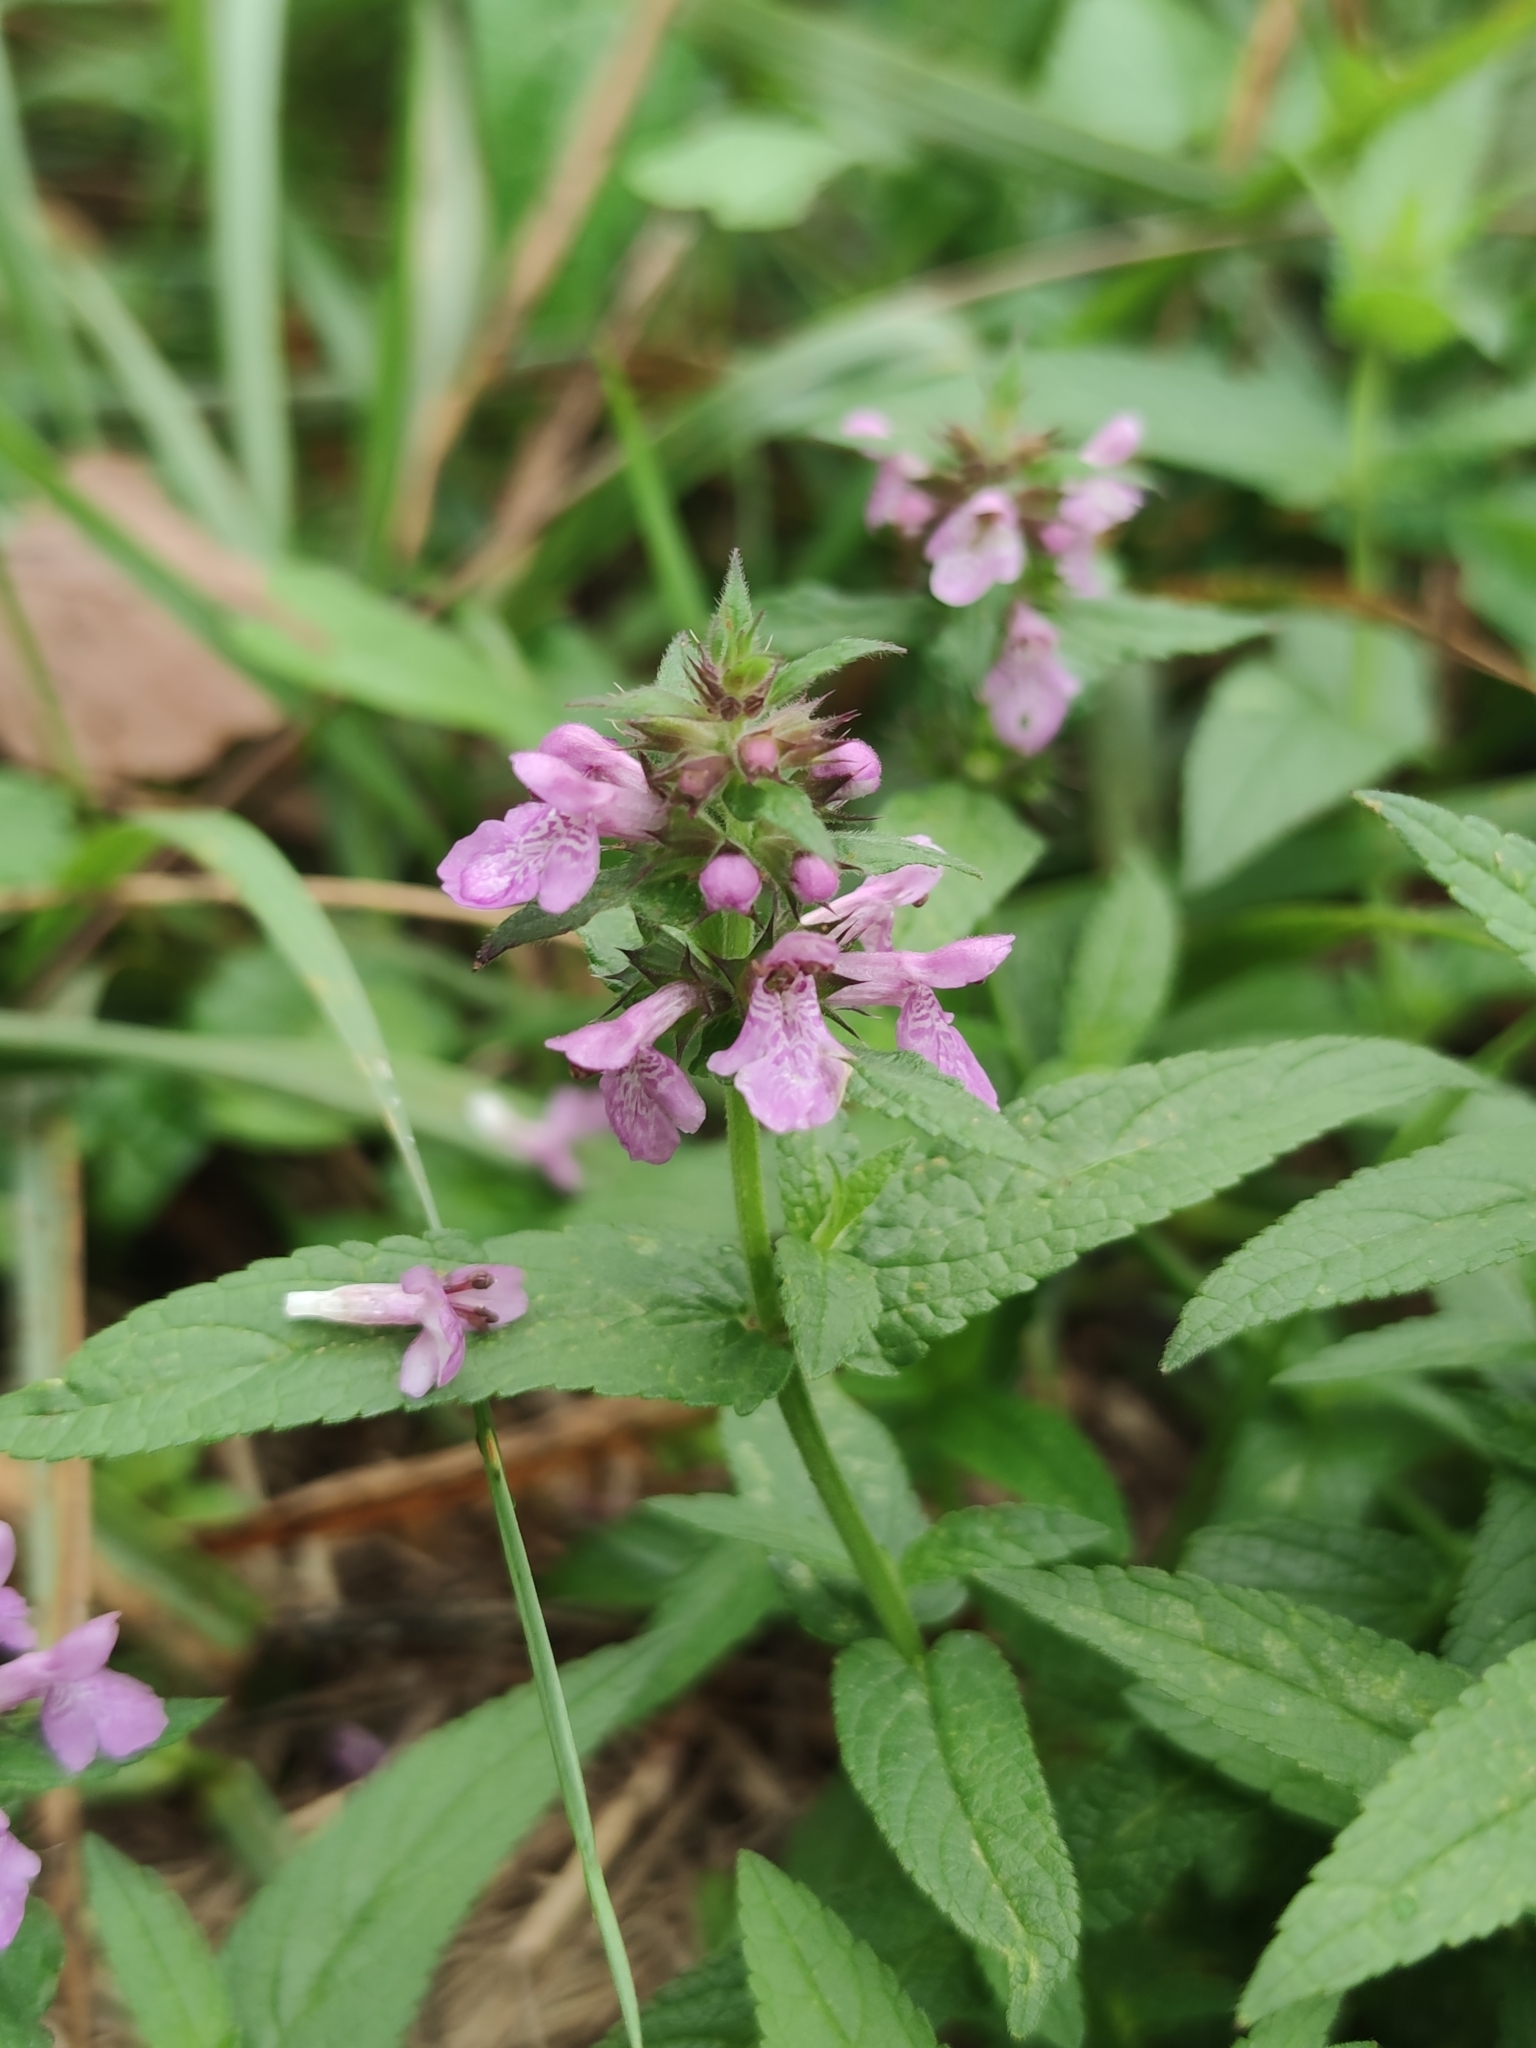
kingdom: Plantae
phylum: Tracheophyta
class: Magnoliopsida
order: Lamiales
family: Lamiaceae
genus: Stachys
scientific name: Stachys palustris
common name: Marsh woundwort
